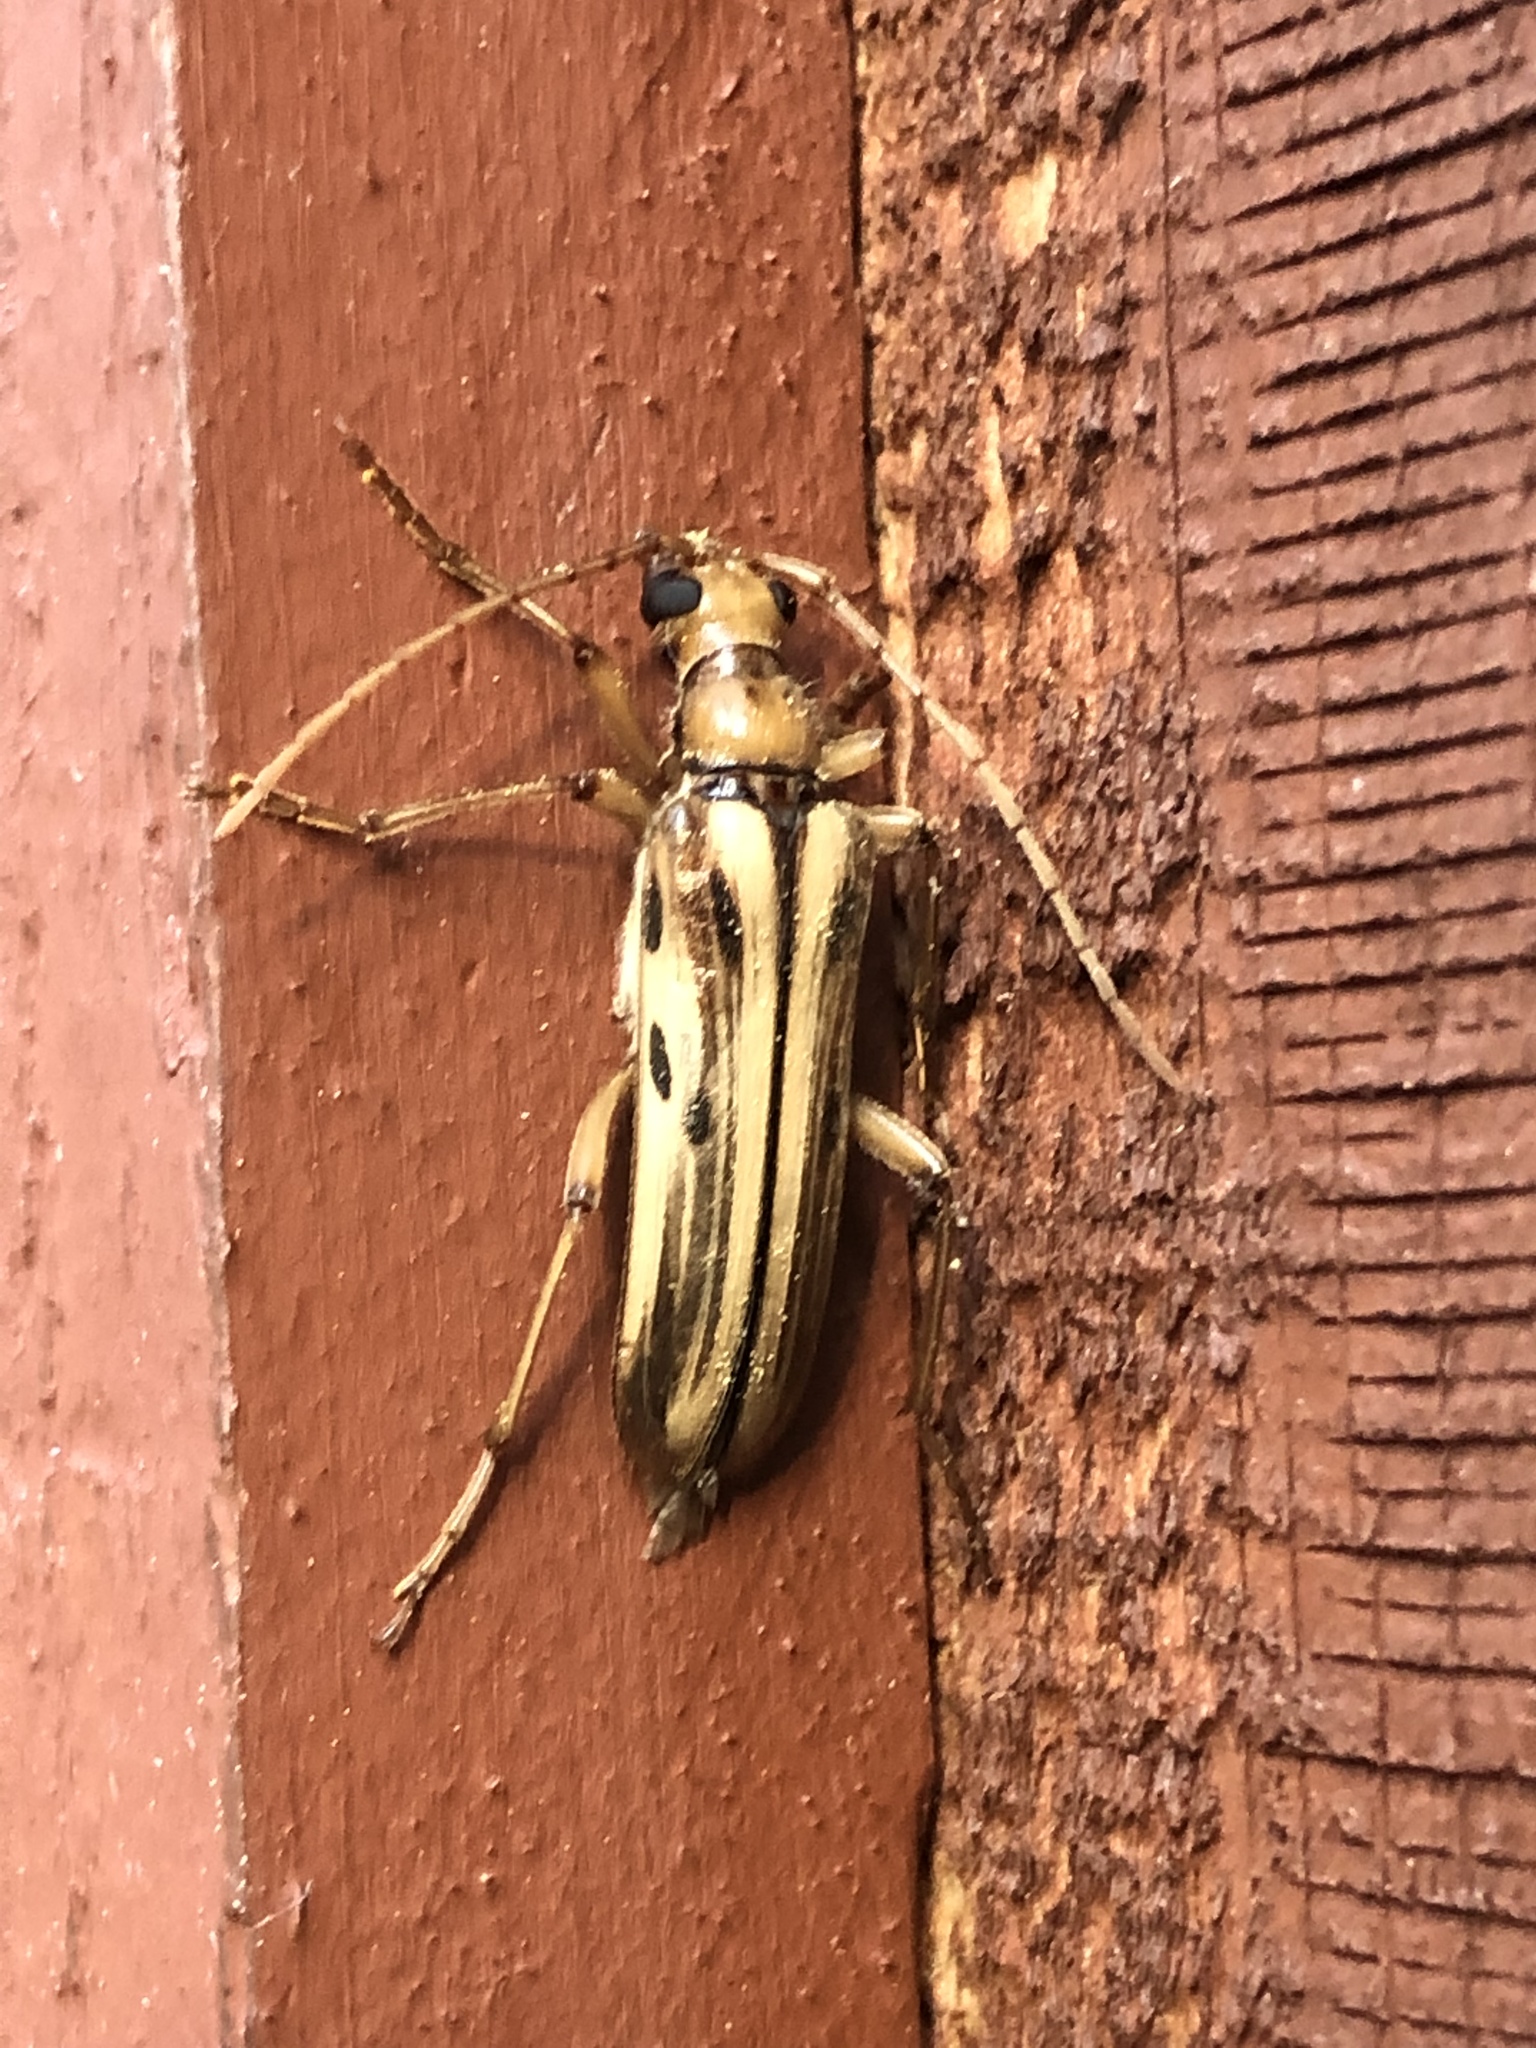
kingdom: Animalia
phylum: Arthropoda
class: Insecta
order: Coleoptera
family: Cerambycidae
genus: Ortholeptura
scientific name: Ortholeptura valida
